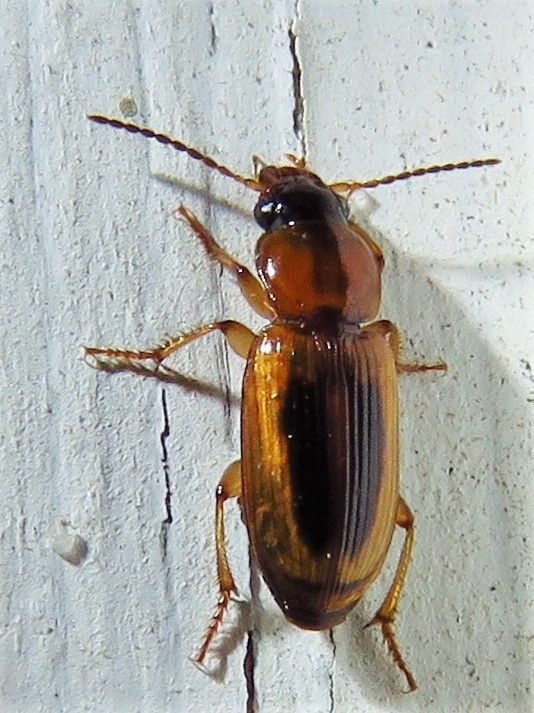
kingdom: Animalia
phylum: Arthropoda
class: Insecta
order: Coleoptera
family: Carabidae
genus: Stenolophus
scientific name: Stenolophus lecontei
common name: Leconte's seedcorn beetle
